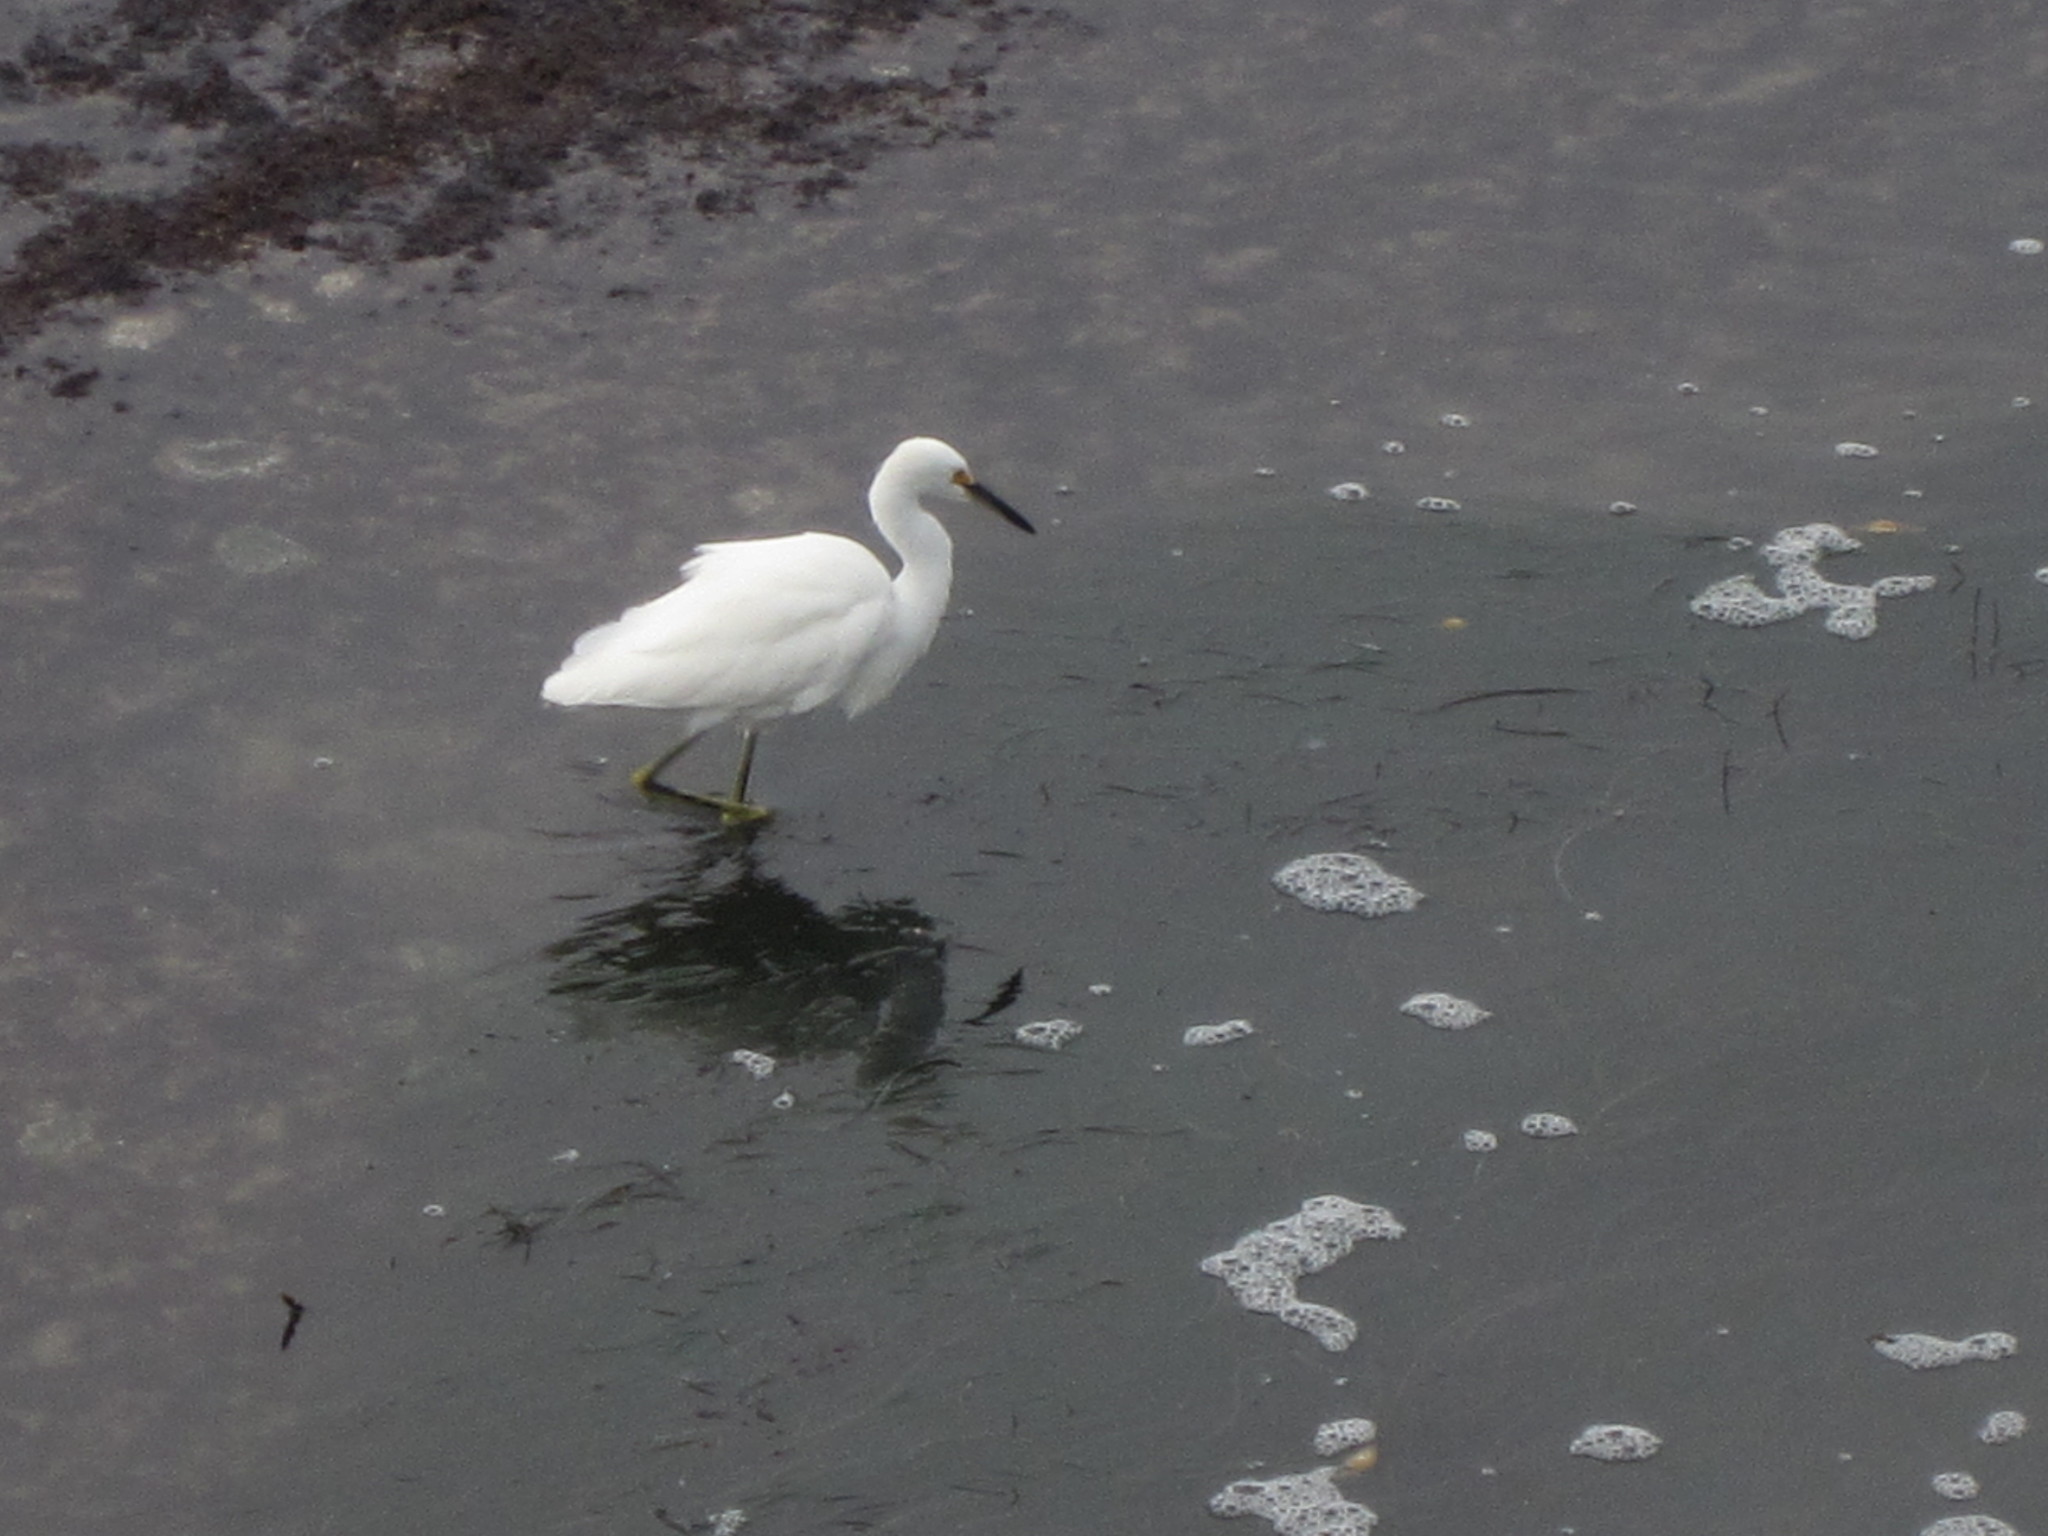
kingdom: Animalia
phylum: Chordata
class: Aves
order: Pelecaniformes
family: Ardeidae
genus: Egretta
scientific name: Egretta thula
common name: Snowy egret
